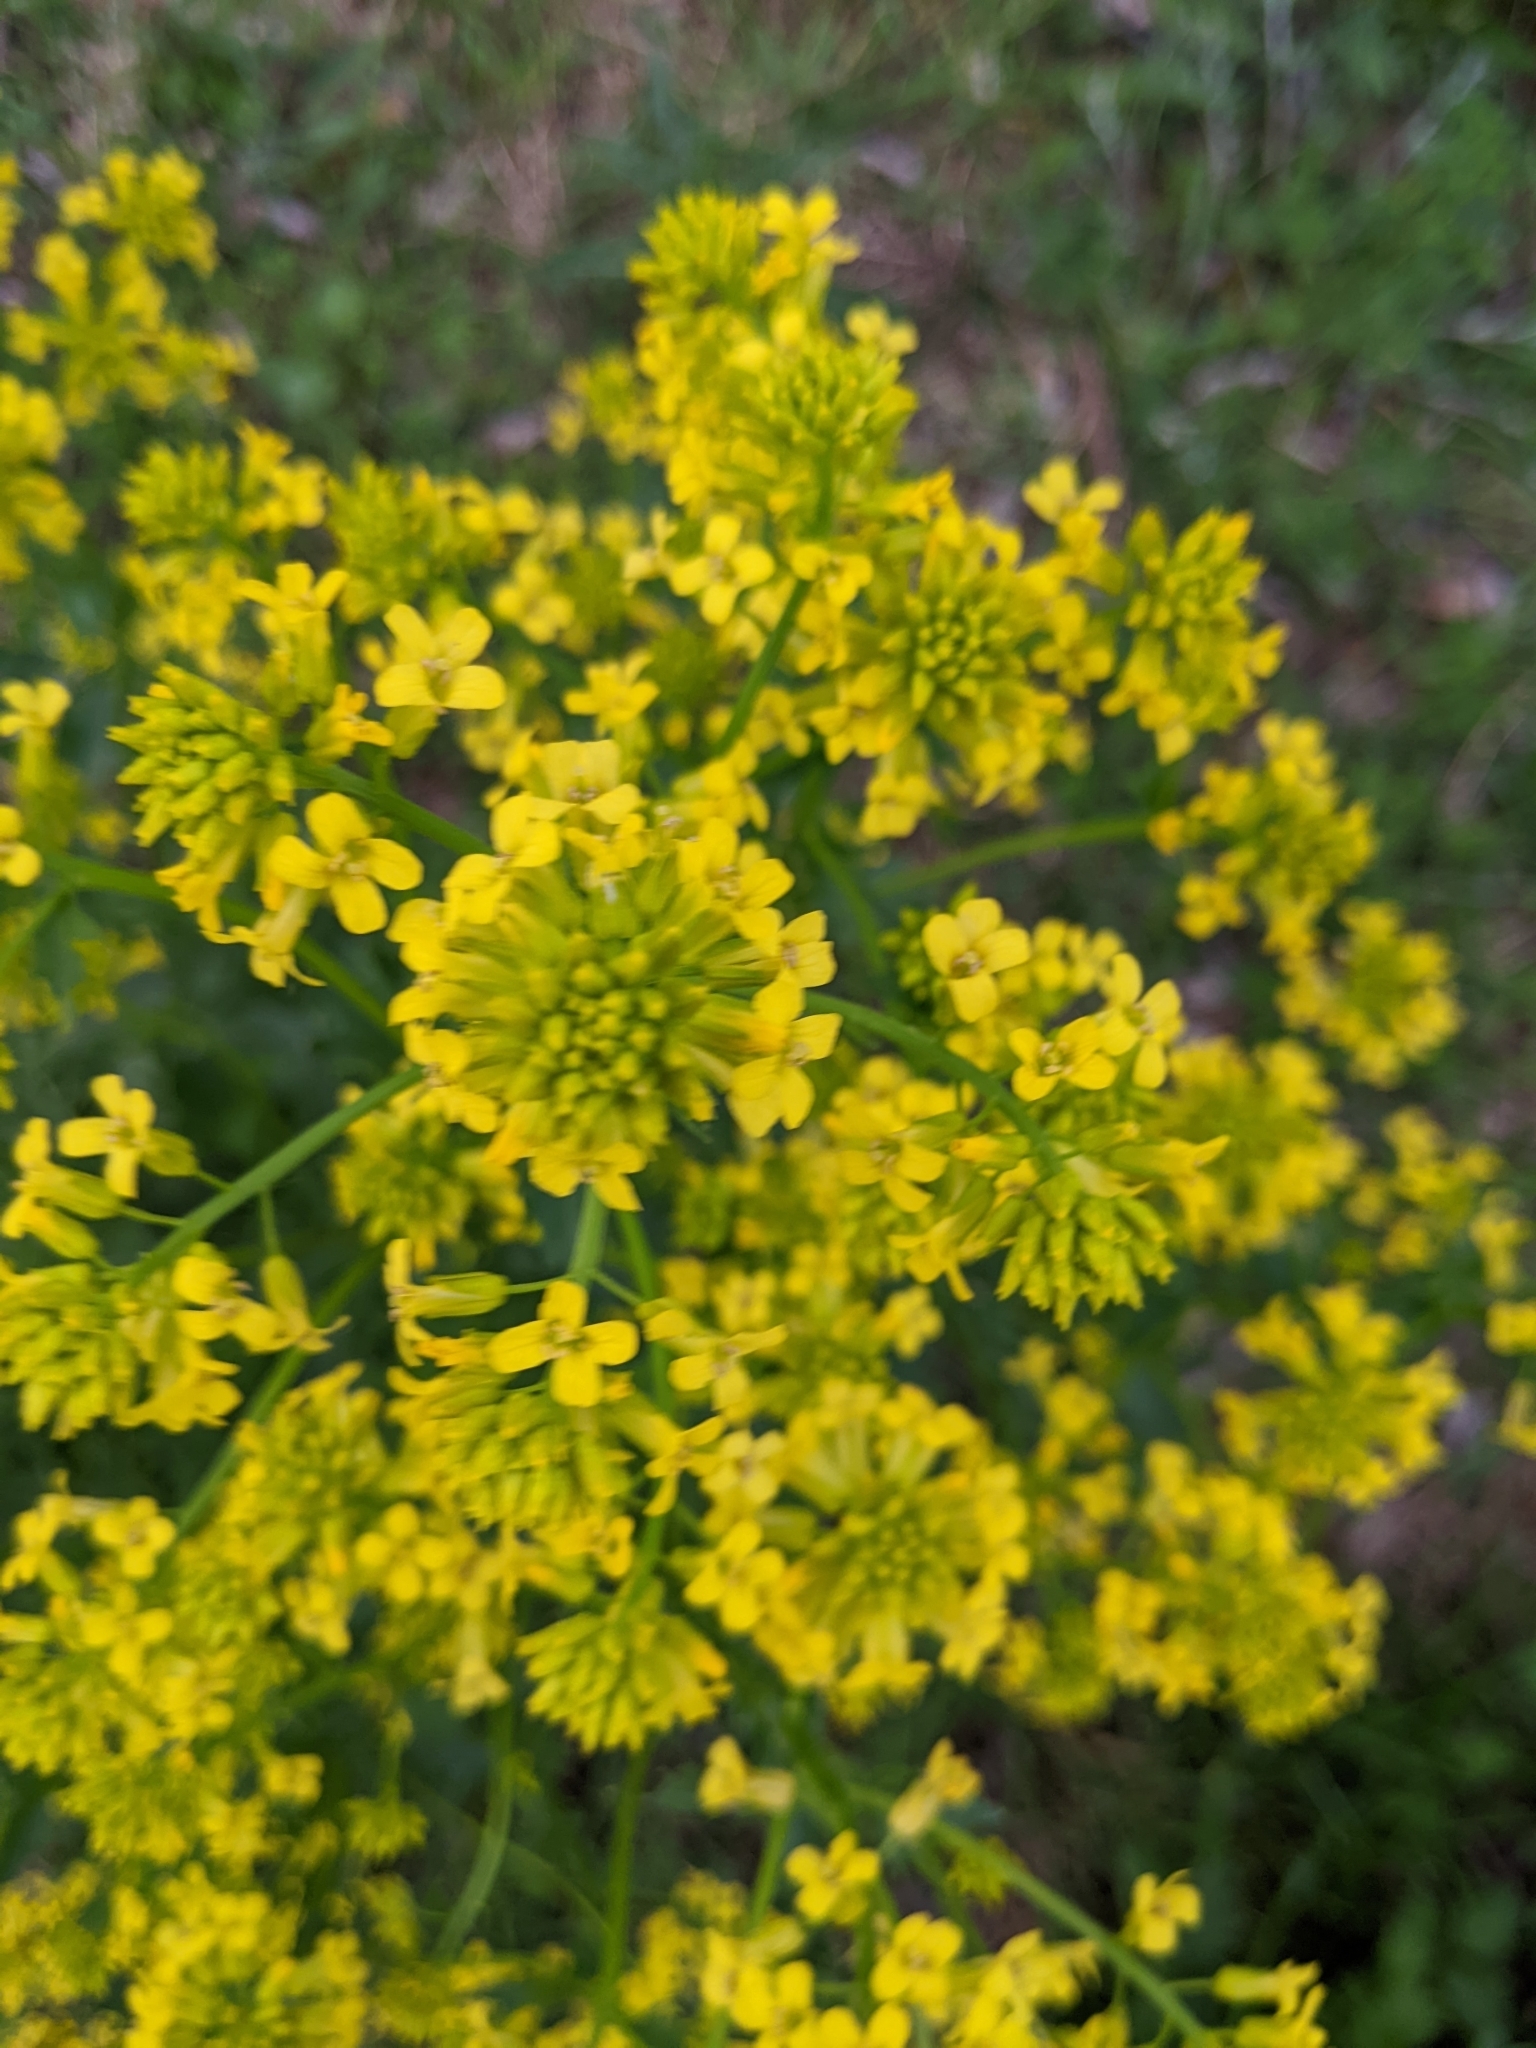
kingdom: Plantae
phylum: Tracheophyta
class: Magnoliopsida
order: Brassicales
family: Brassicaceae
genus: Barbarea
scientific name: Barbarea vulgaris
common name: Cressy-greens
